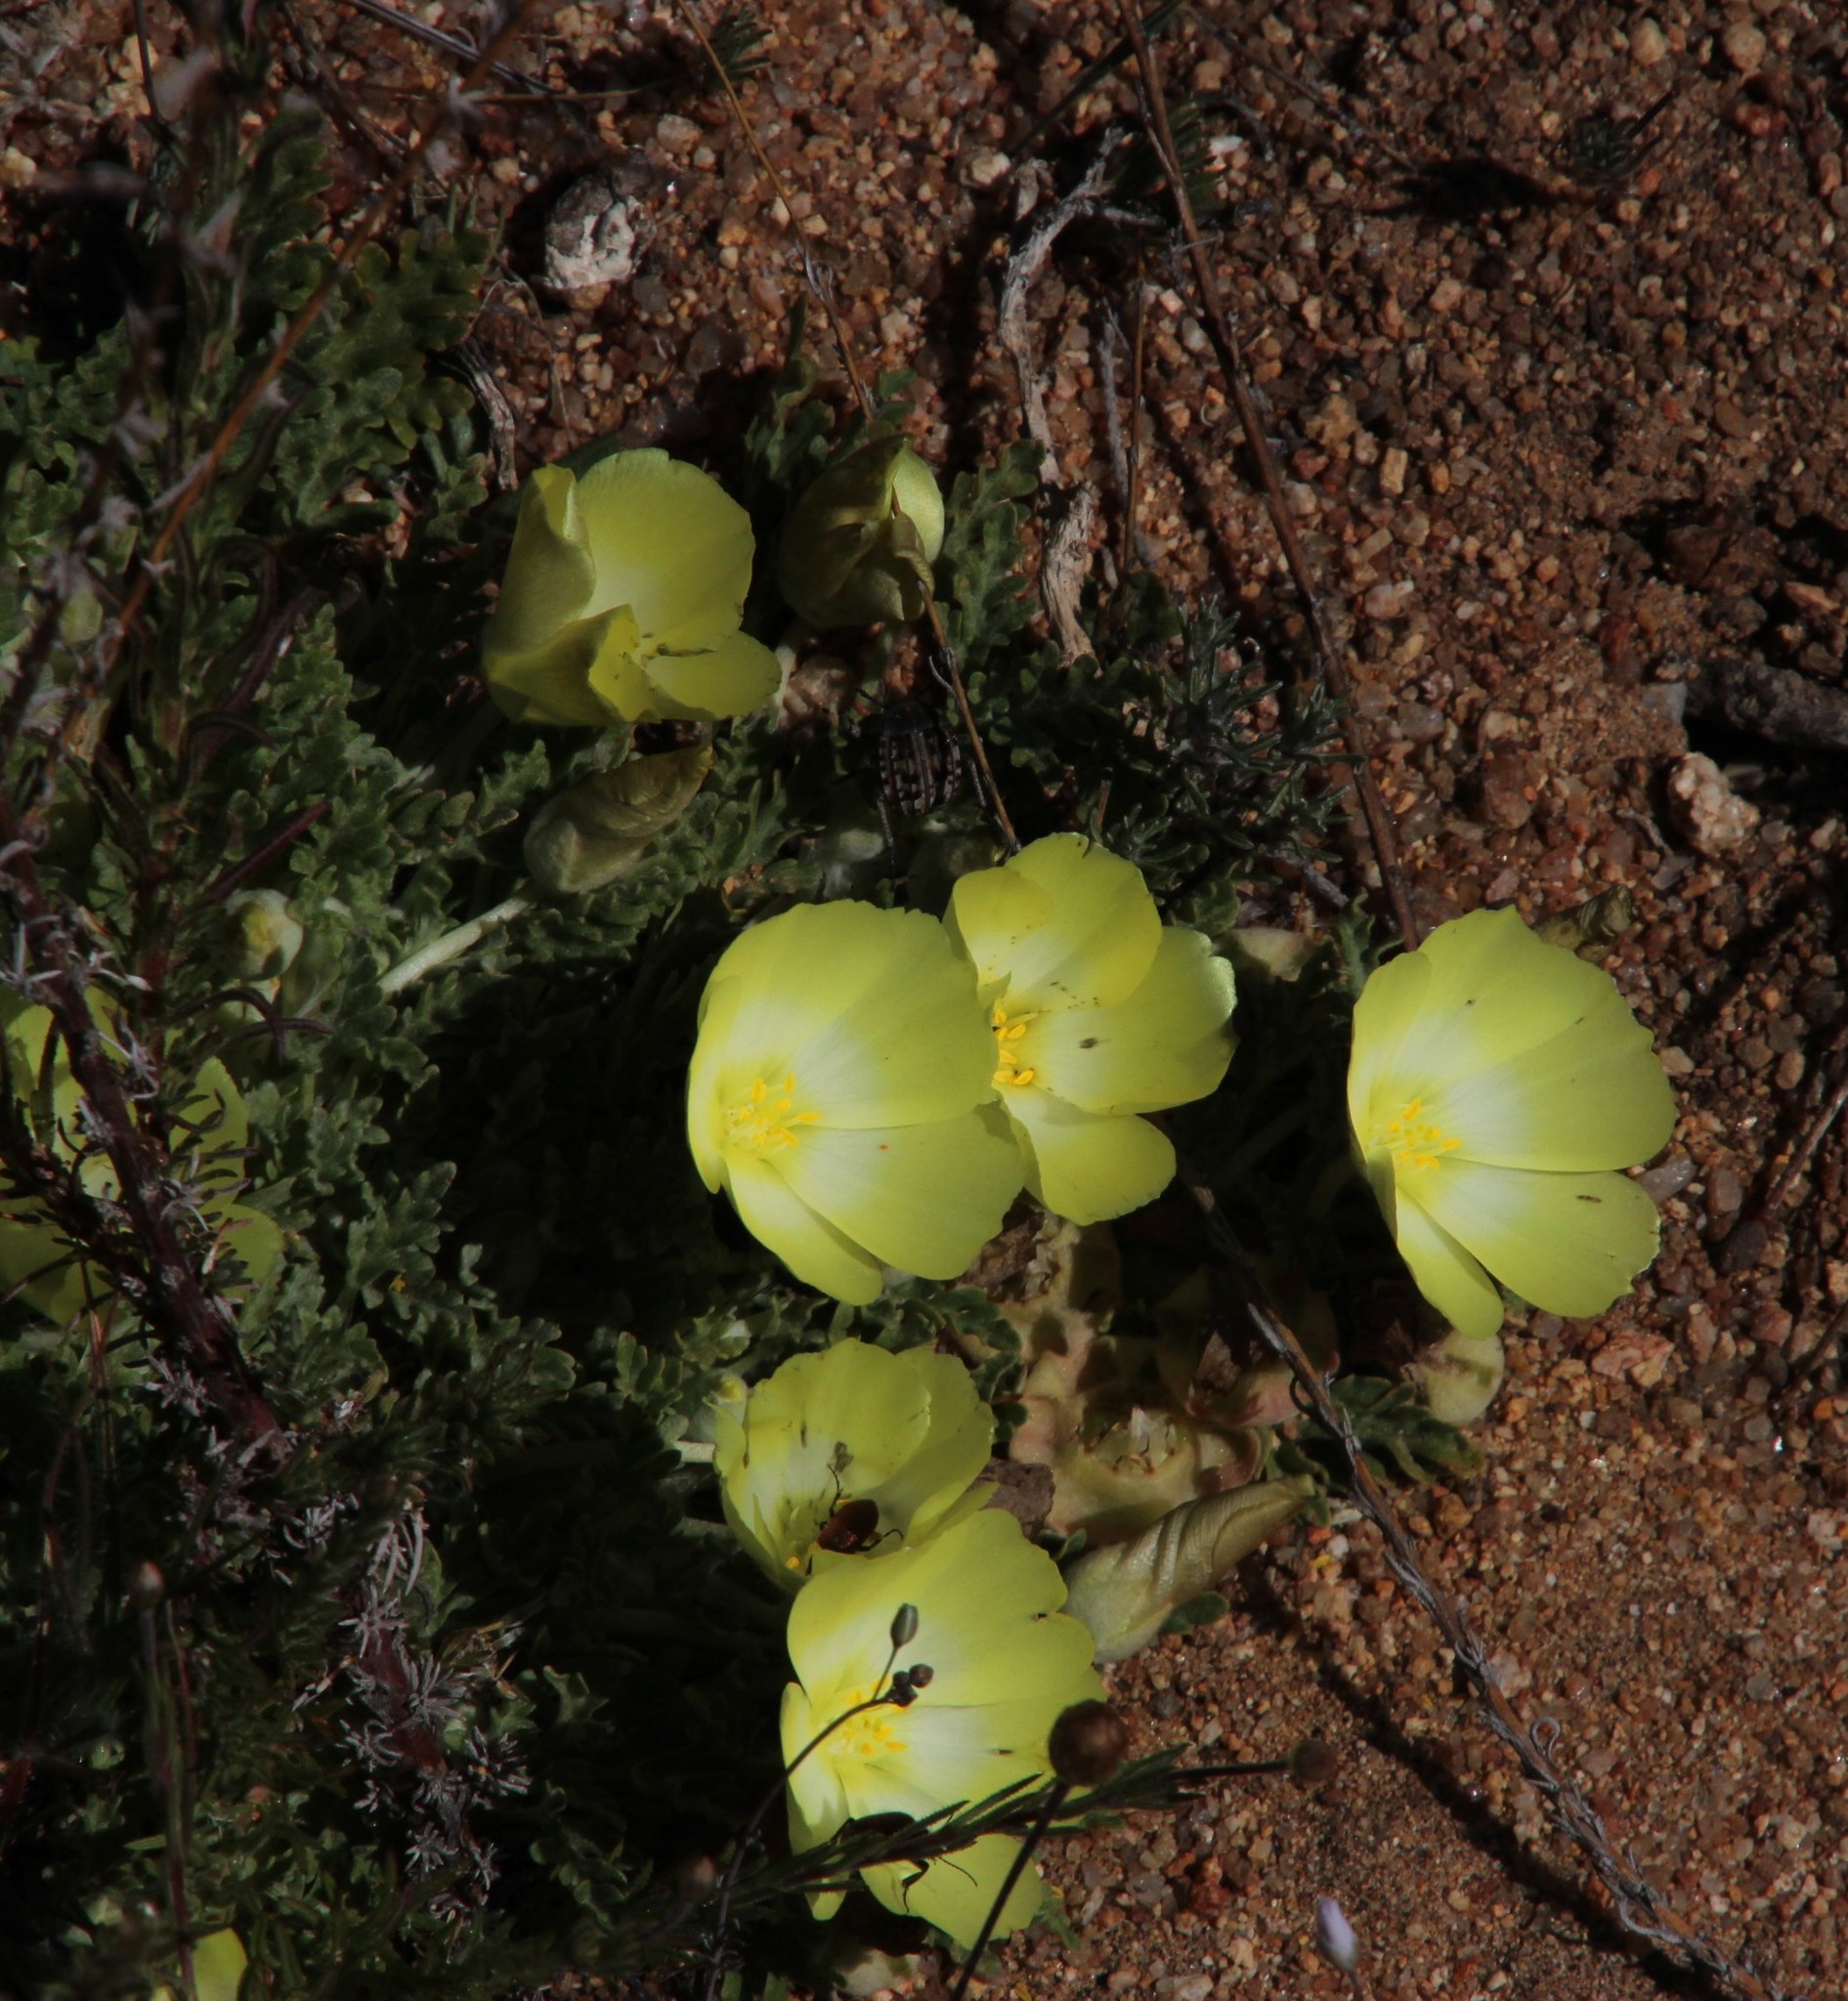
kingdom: Plantae
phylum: Tracheophyta
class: Magnoliopsida
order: Malvales
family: Neuradaceae
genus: Grielum
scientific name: Grielum humifusum
